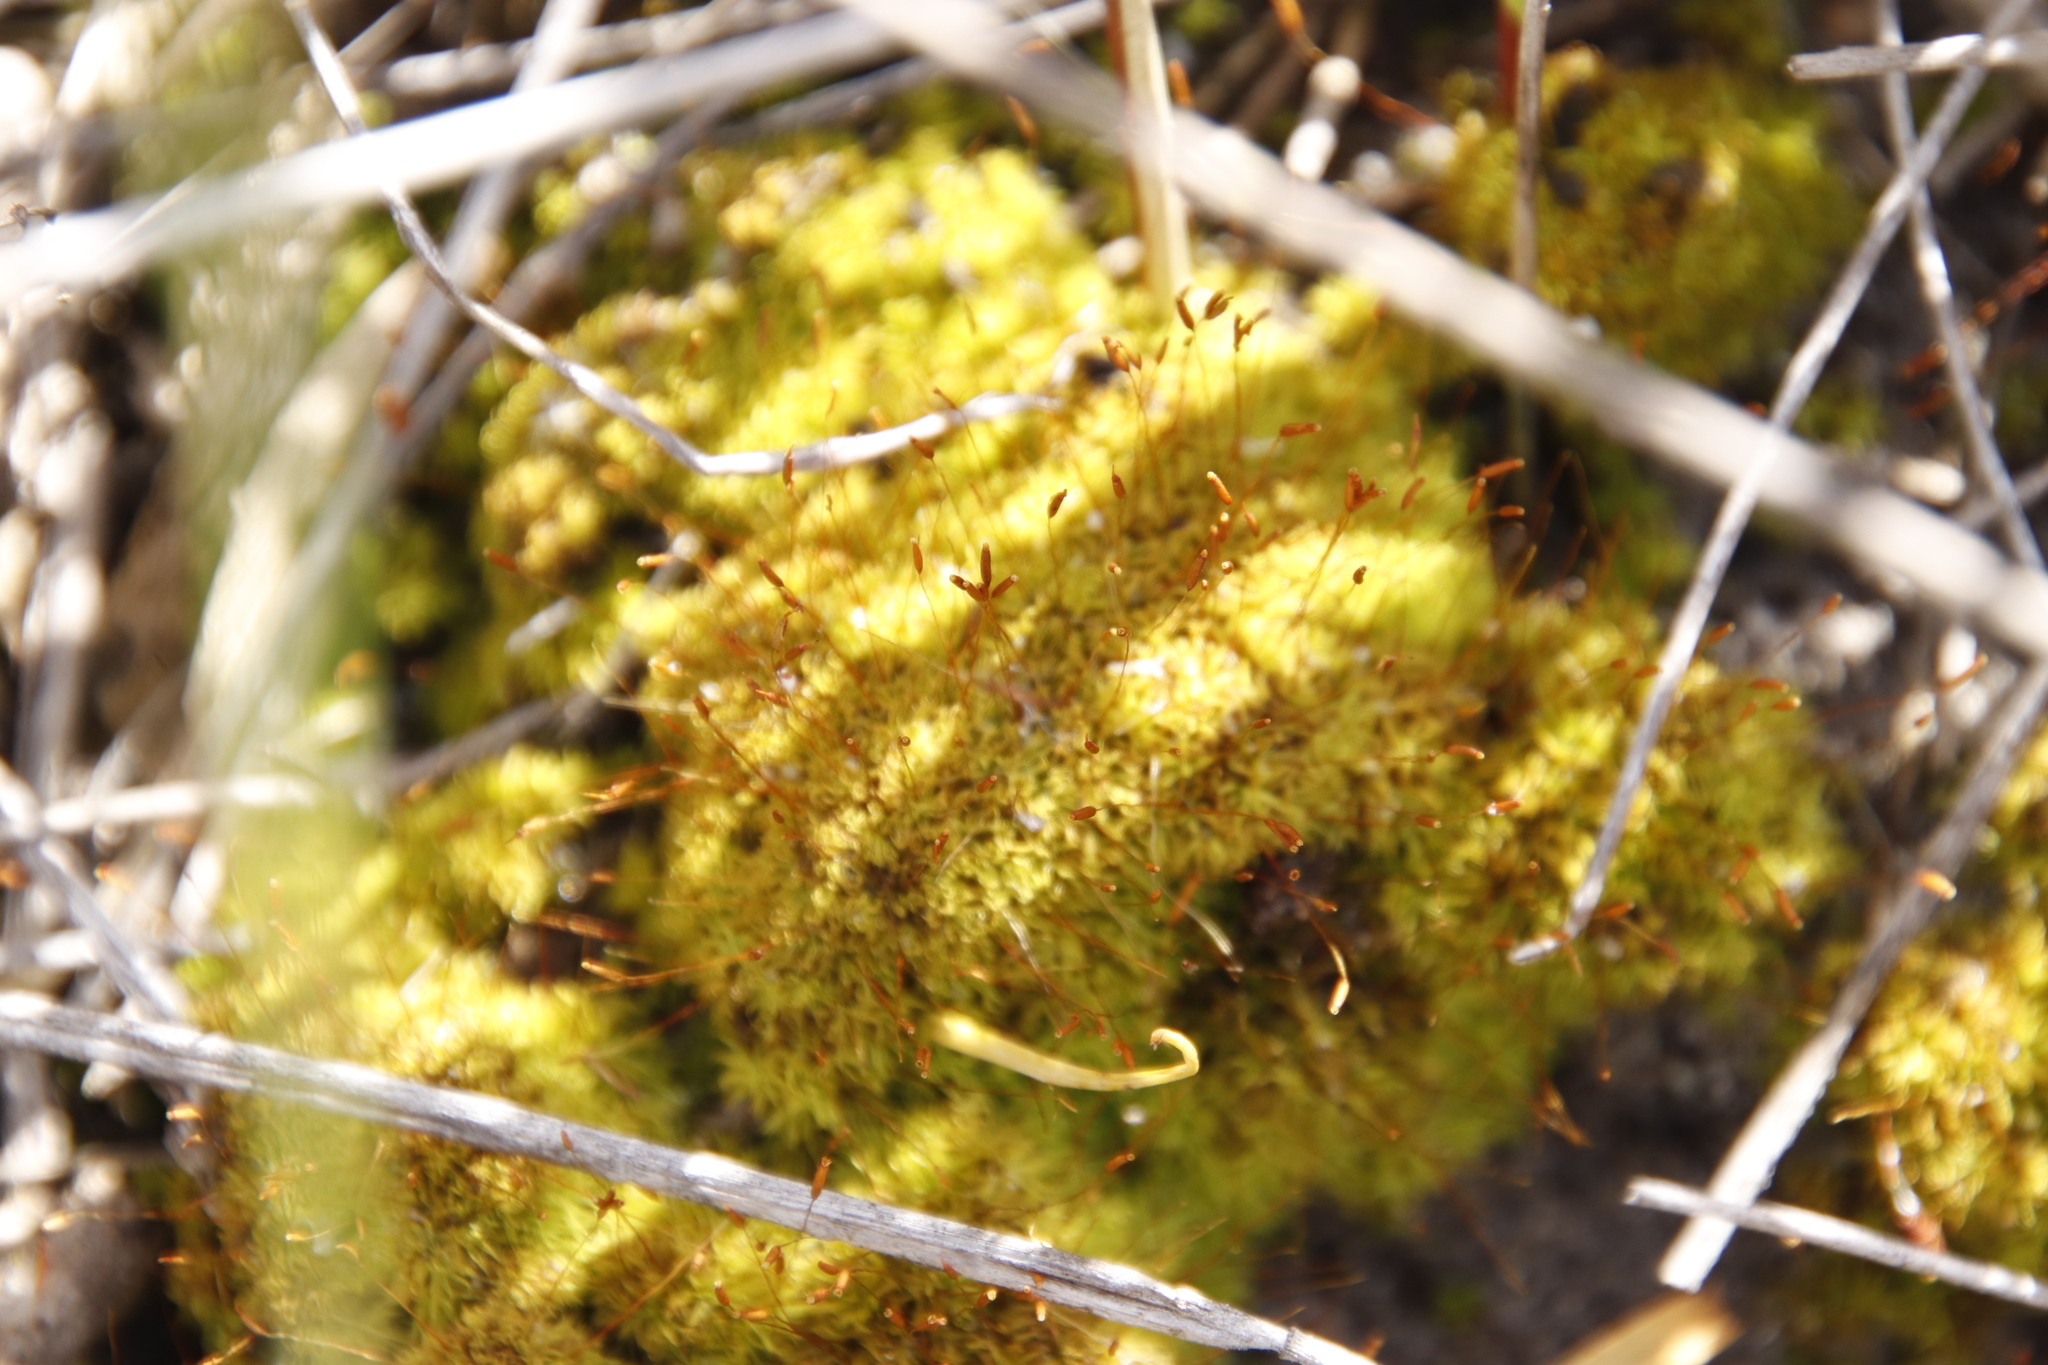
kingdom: Plantae
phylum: Bryophyta
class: Bryopsida
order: Pottiales
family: Pottiaceae
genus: Tortella
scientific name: Tortella xanthocarpa
